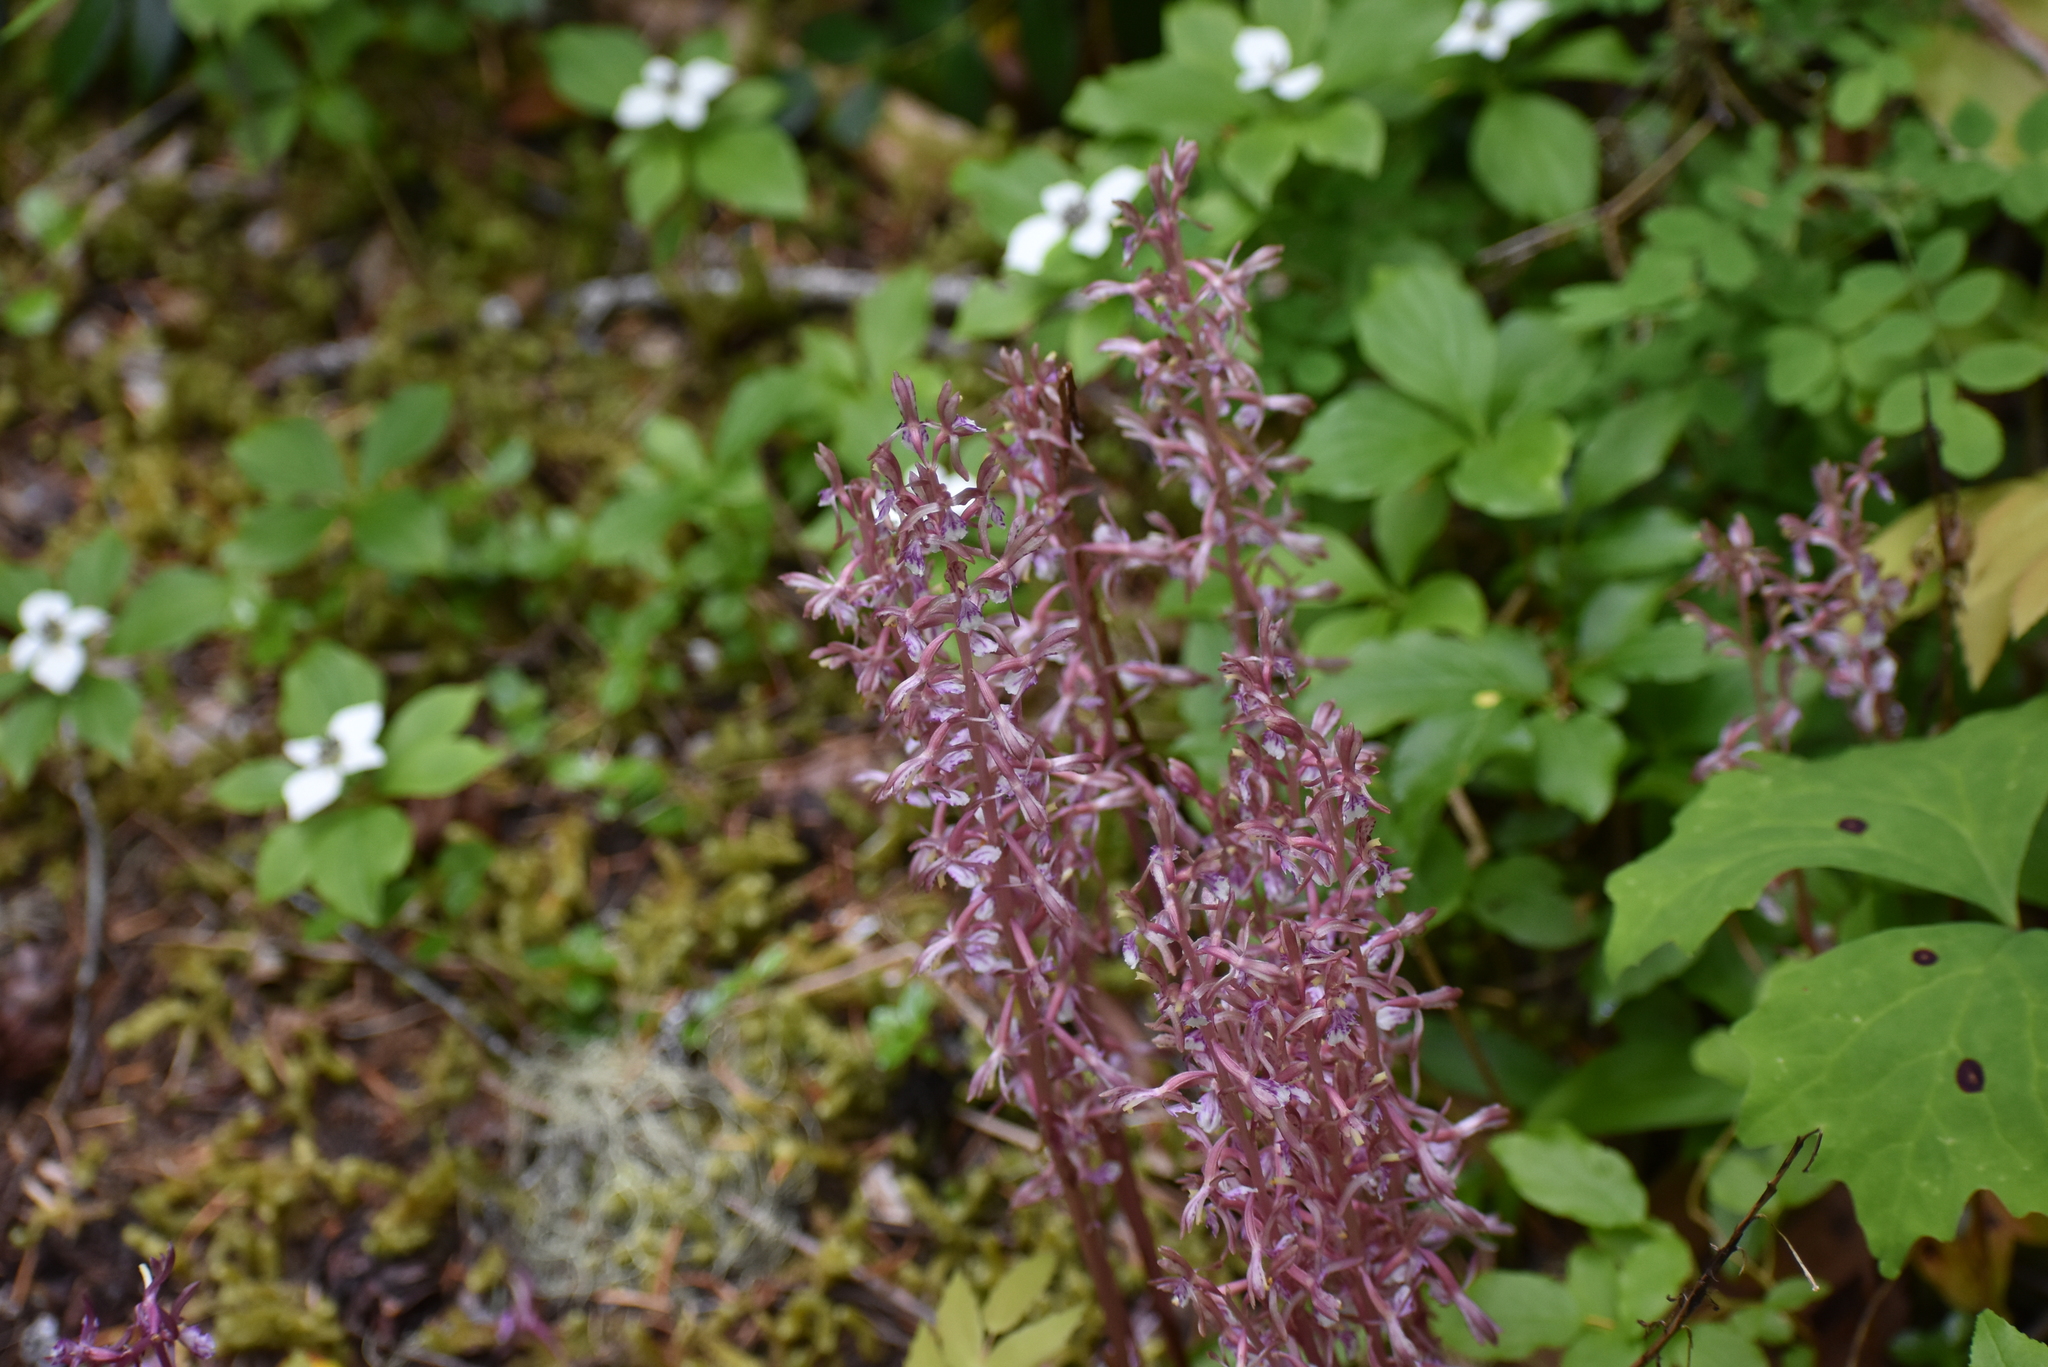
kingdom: Plantae
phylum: Tracheophyta
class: Liliopsida
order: Asparagales
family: Orchidaceae
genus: Corallorhiza
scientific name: Corallorhiza mertensiana
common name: Pacific coralroot
